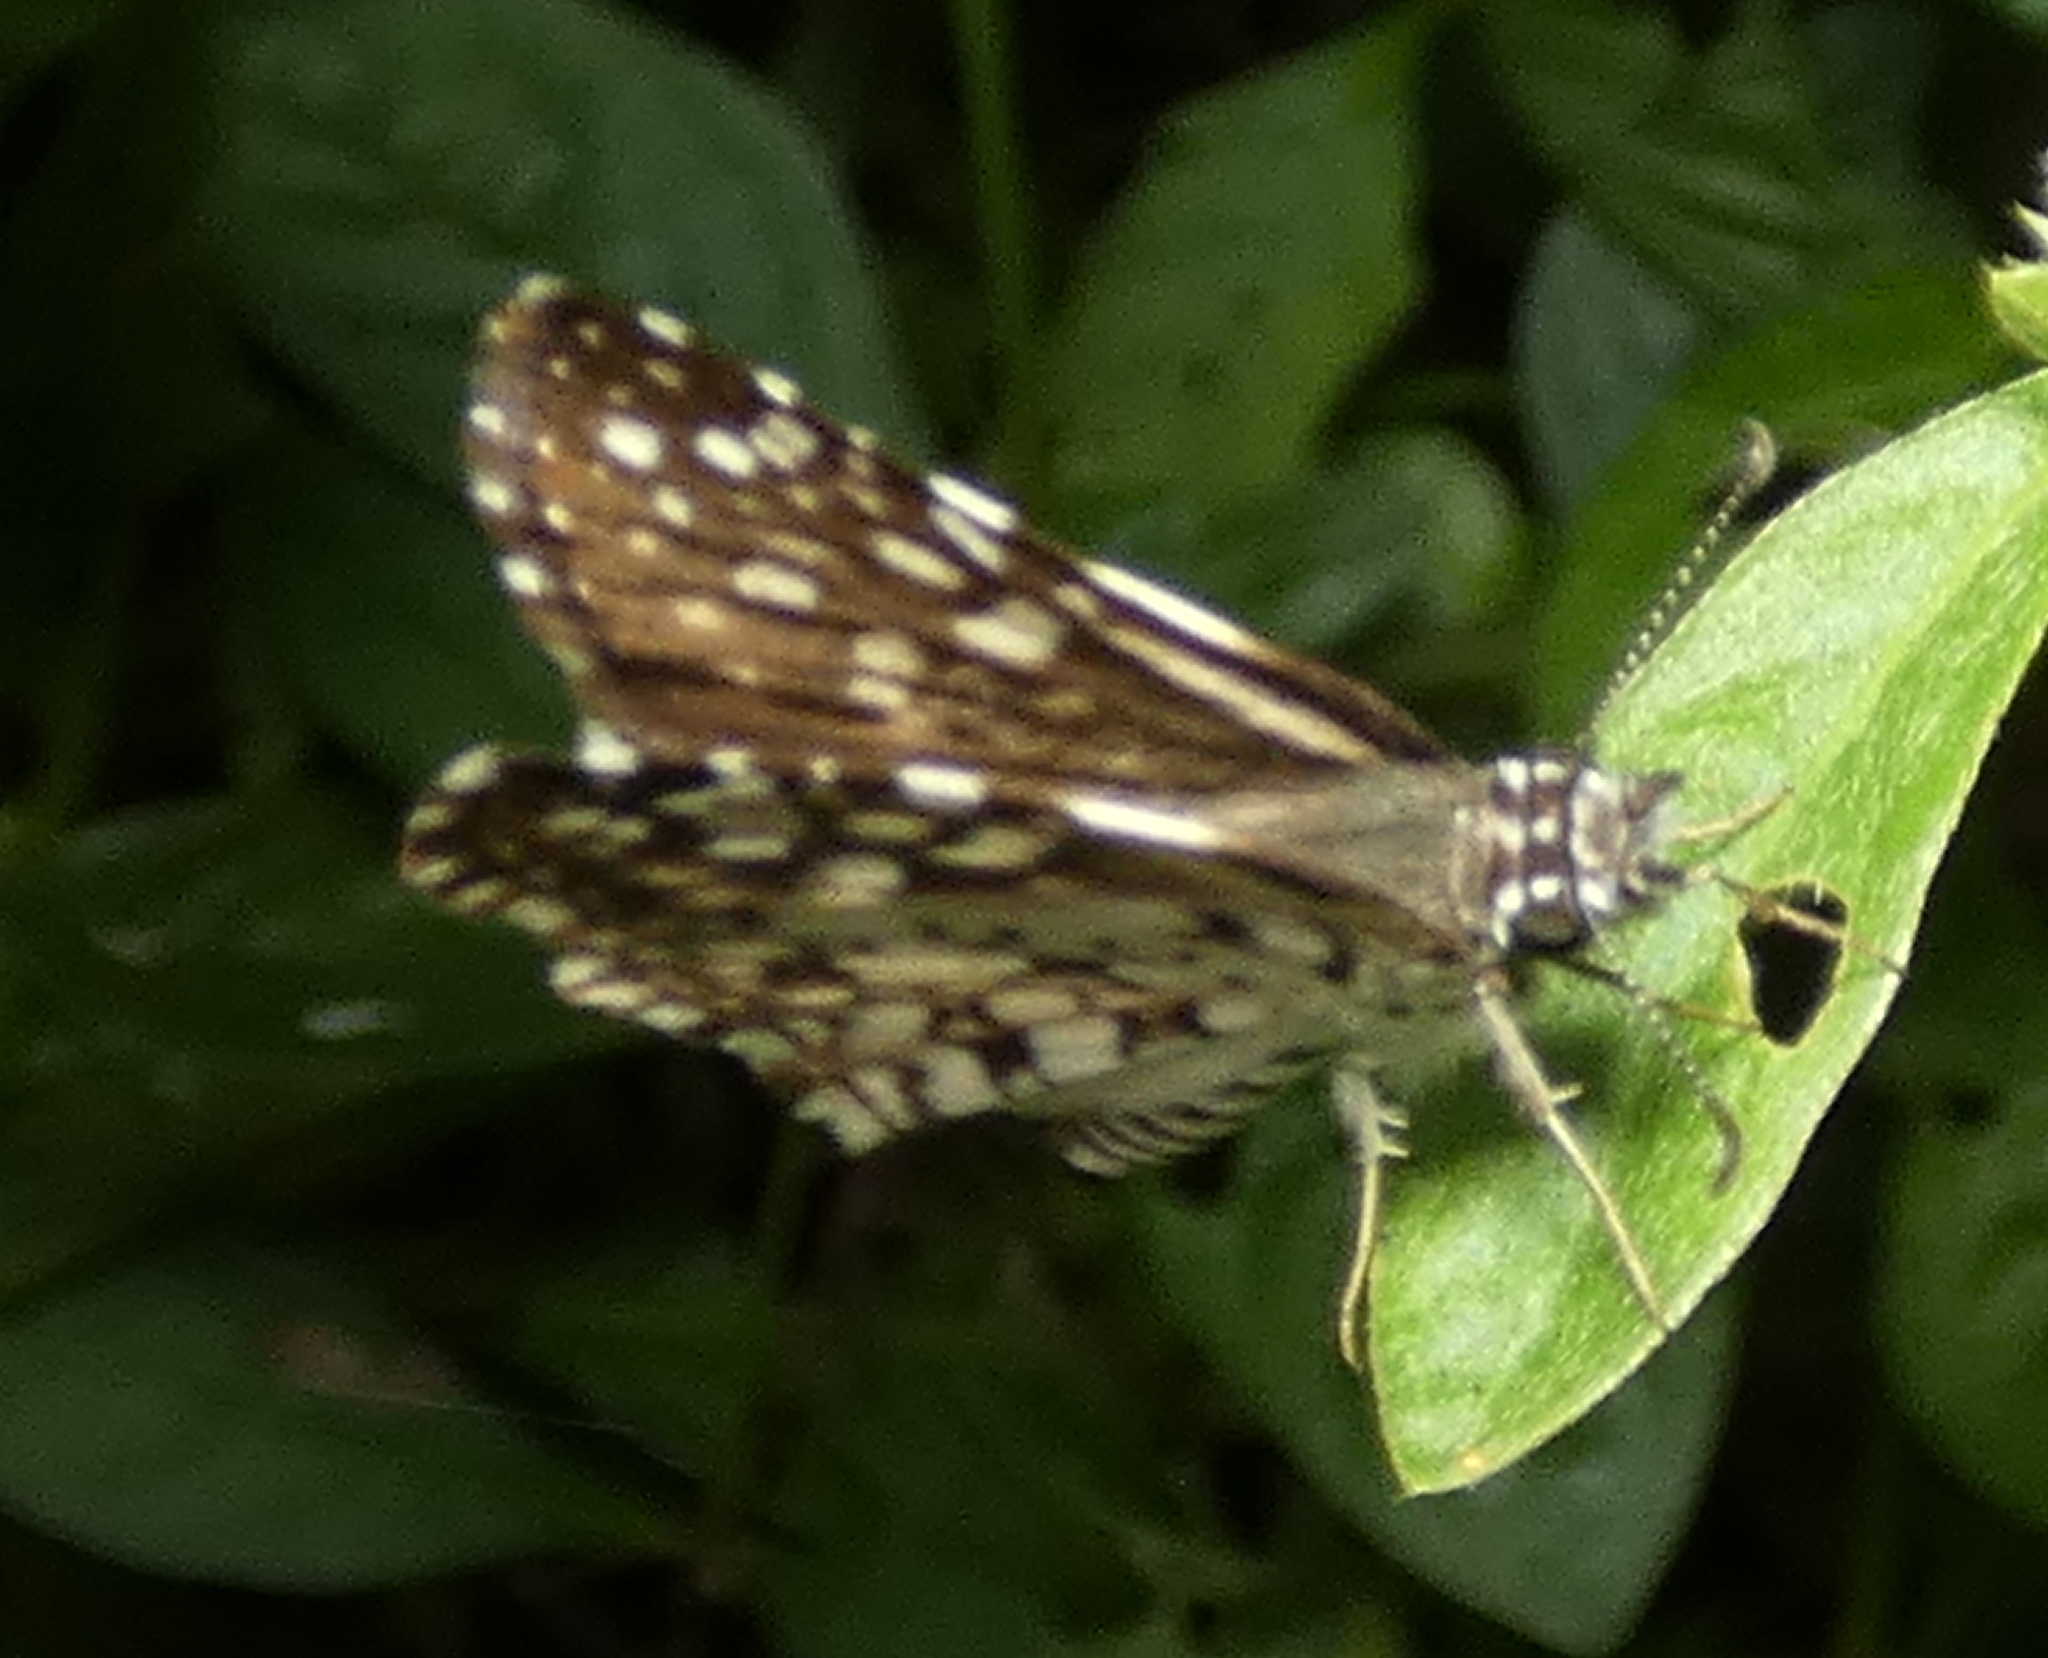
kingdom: Animalia
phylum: Arthropoda
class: Insecta
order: Lepidoptera
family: Hesperiidae
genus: Pyrgus
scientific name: Pyrgus oileus
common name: Tropical checkered-skipper
